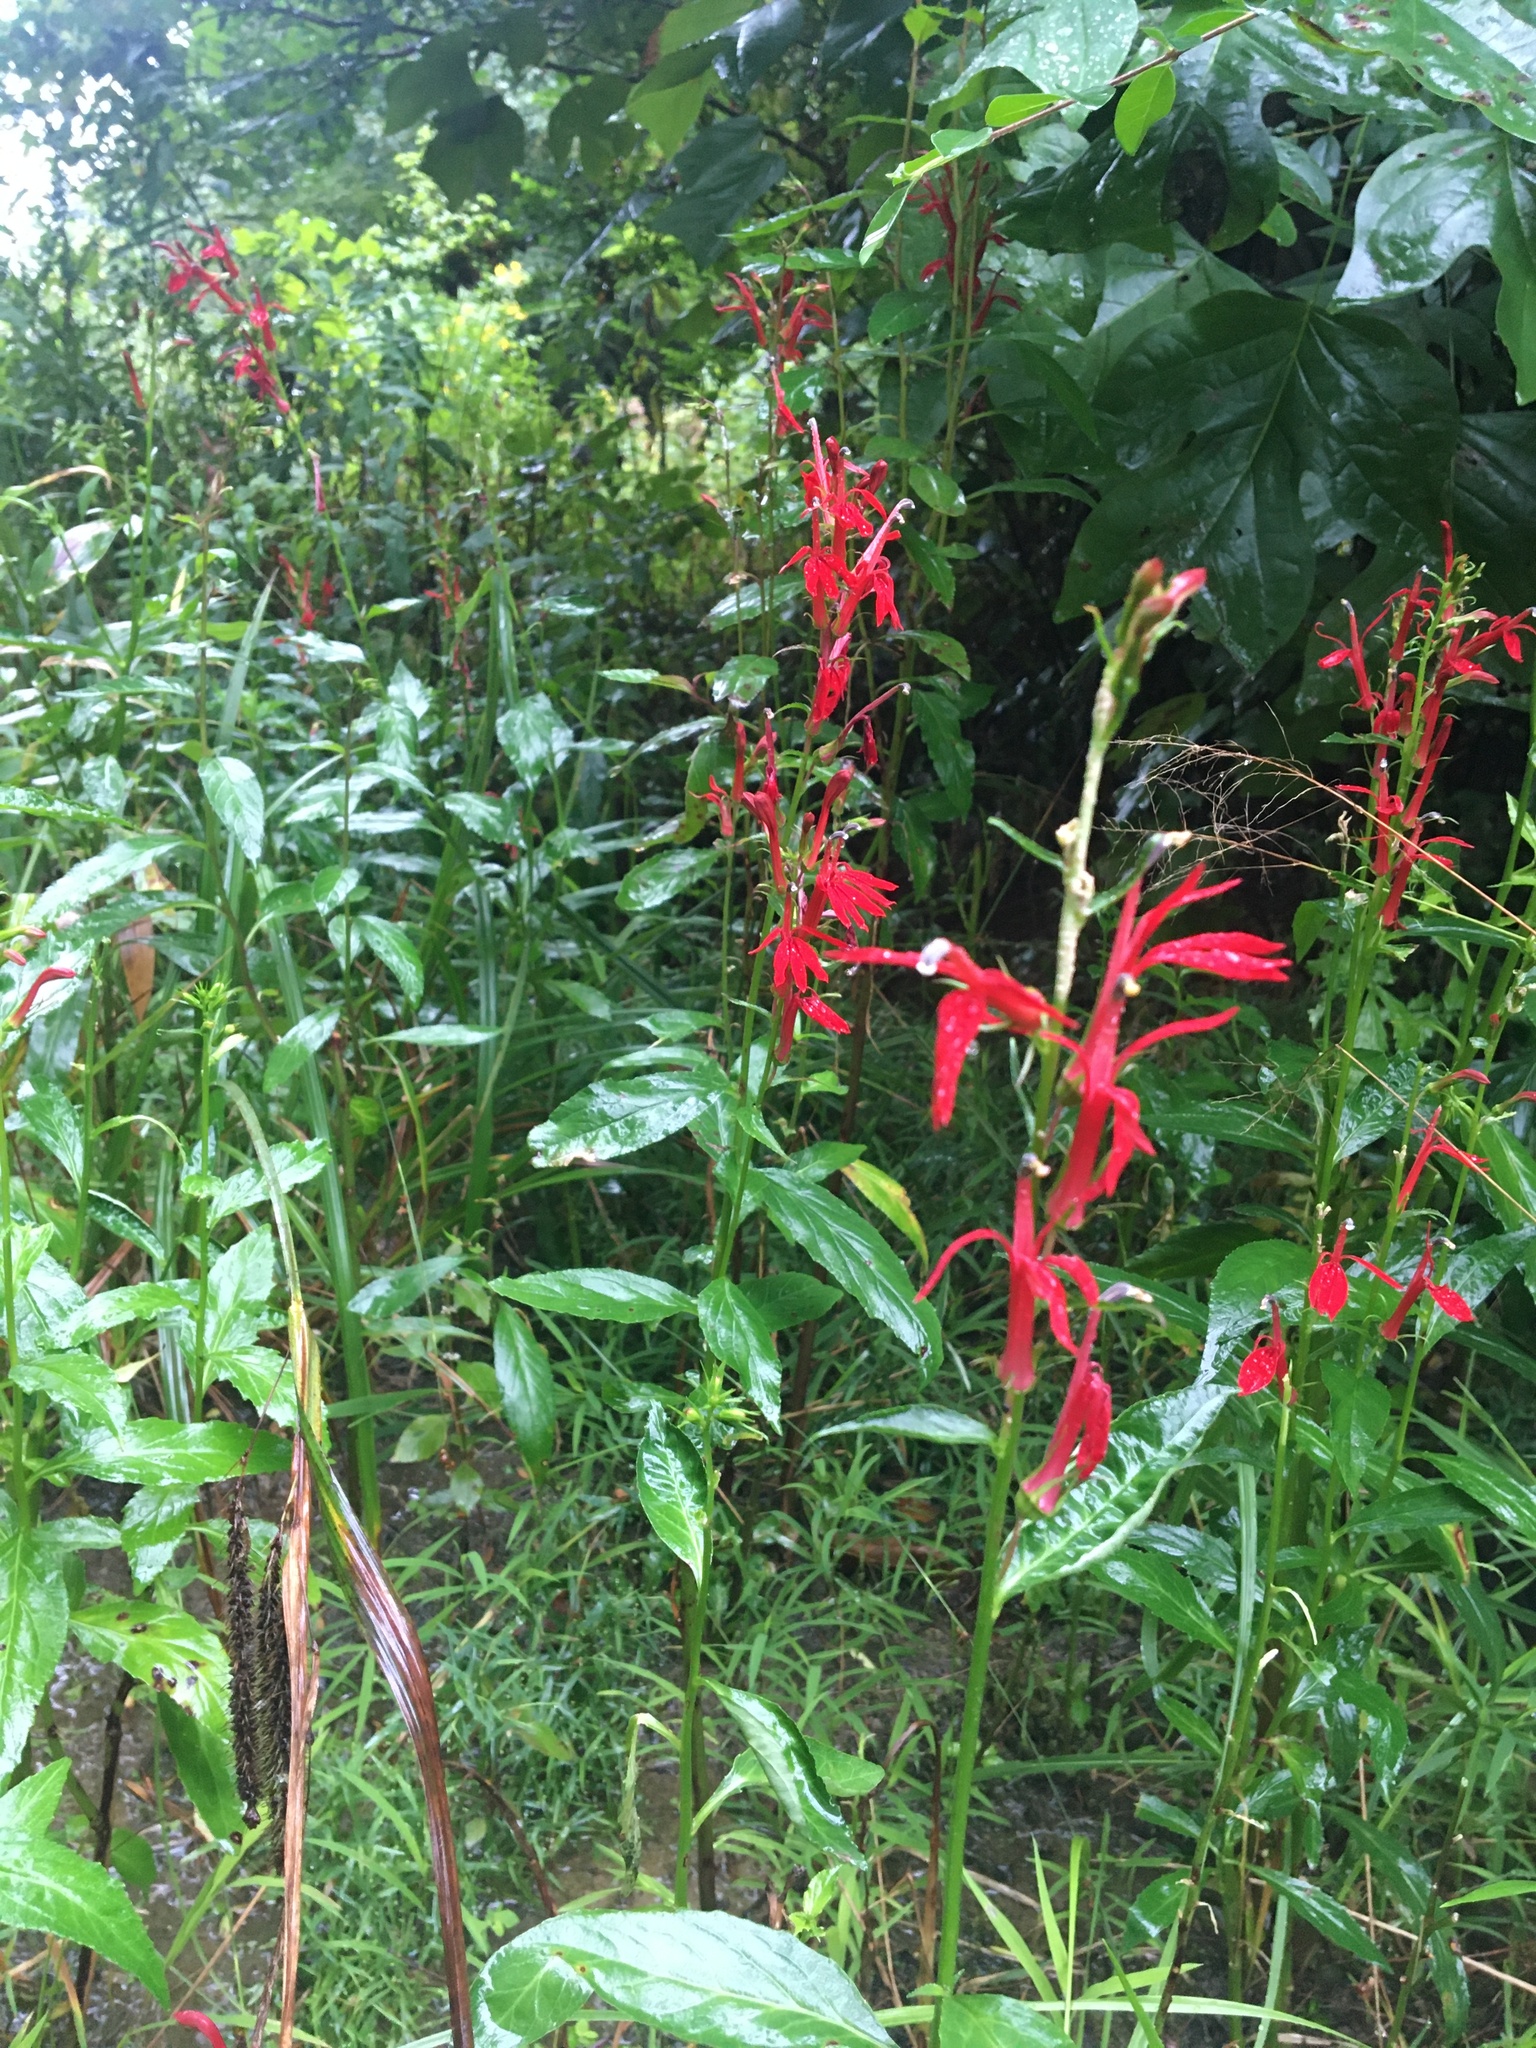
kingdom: Plantae
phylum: Tracheophyta
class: Magnoliopsida
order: Asterales
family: Campanulaceae
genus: Lobelia
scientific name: Lobelia cardinalis
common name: Cardinal flower
